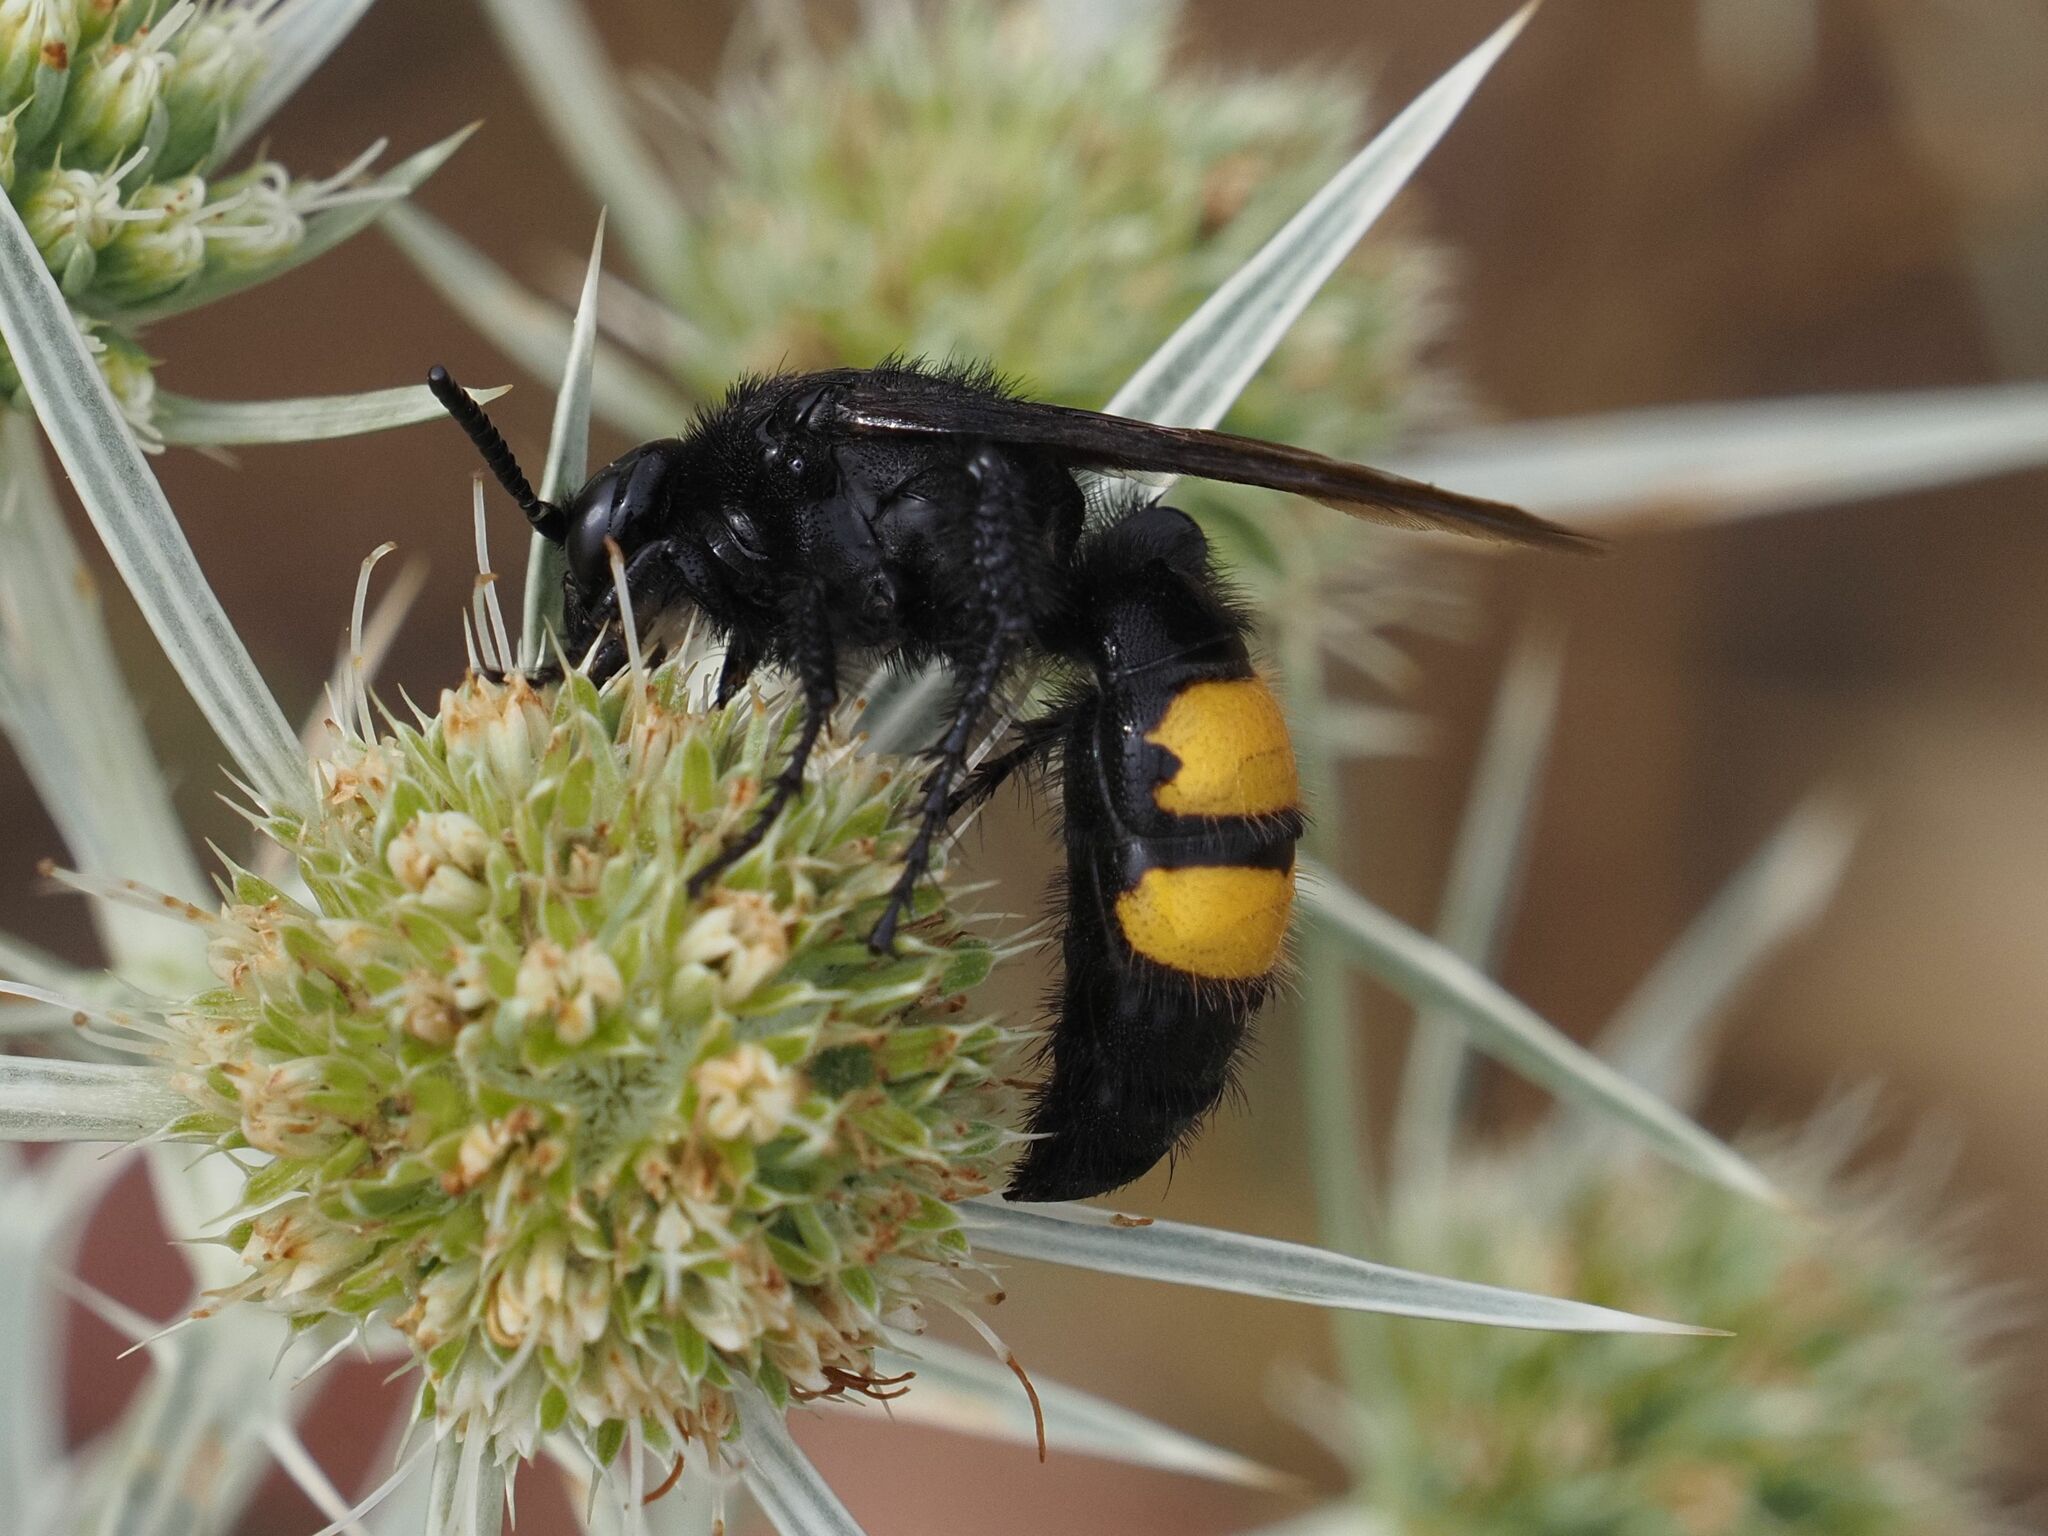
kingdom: Animalia
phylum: Arthropoda
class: Insecta
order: Hymenoptera
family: Scoliidae
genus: Scolia
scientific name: Scolia hirta
